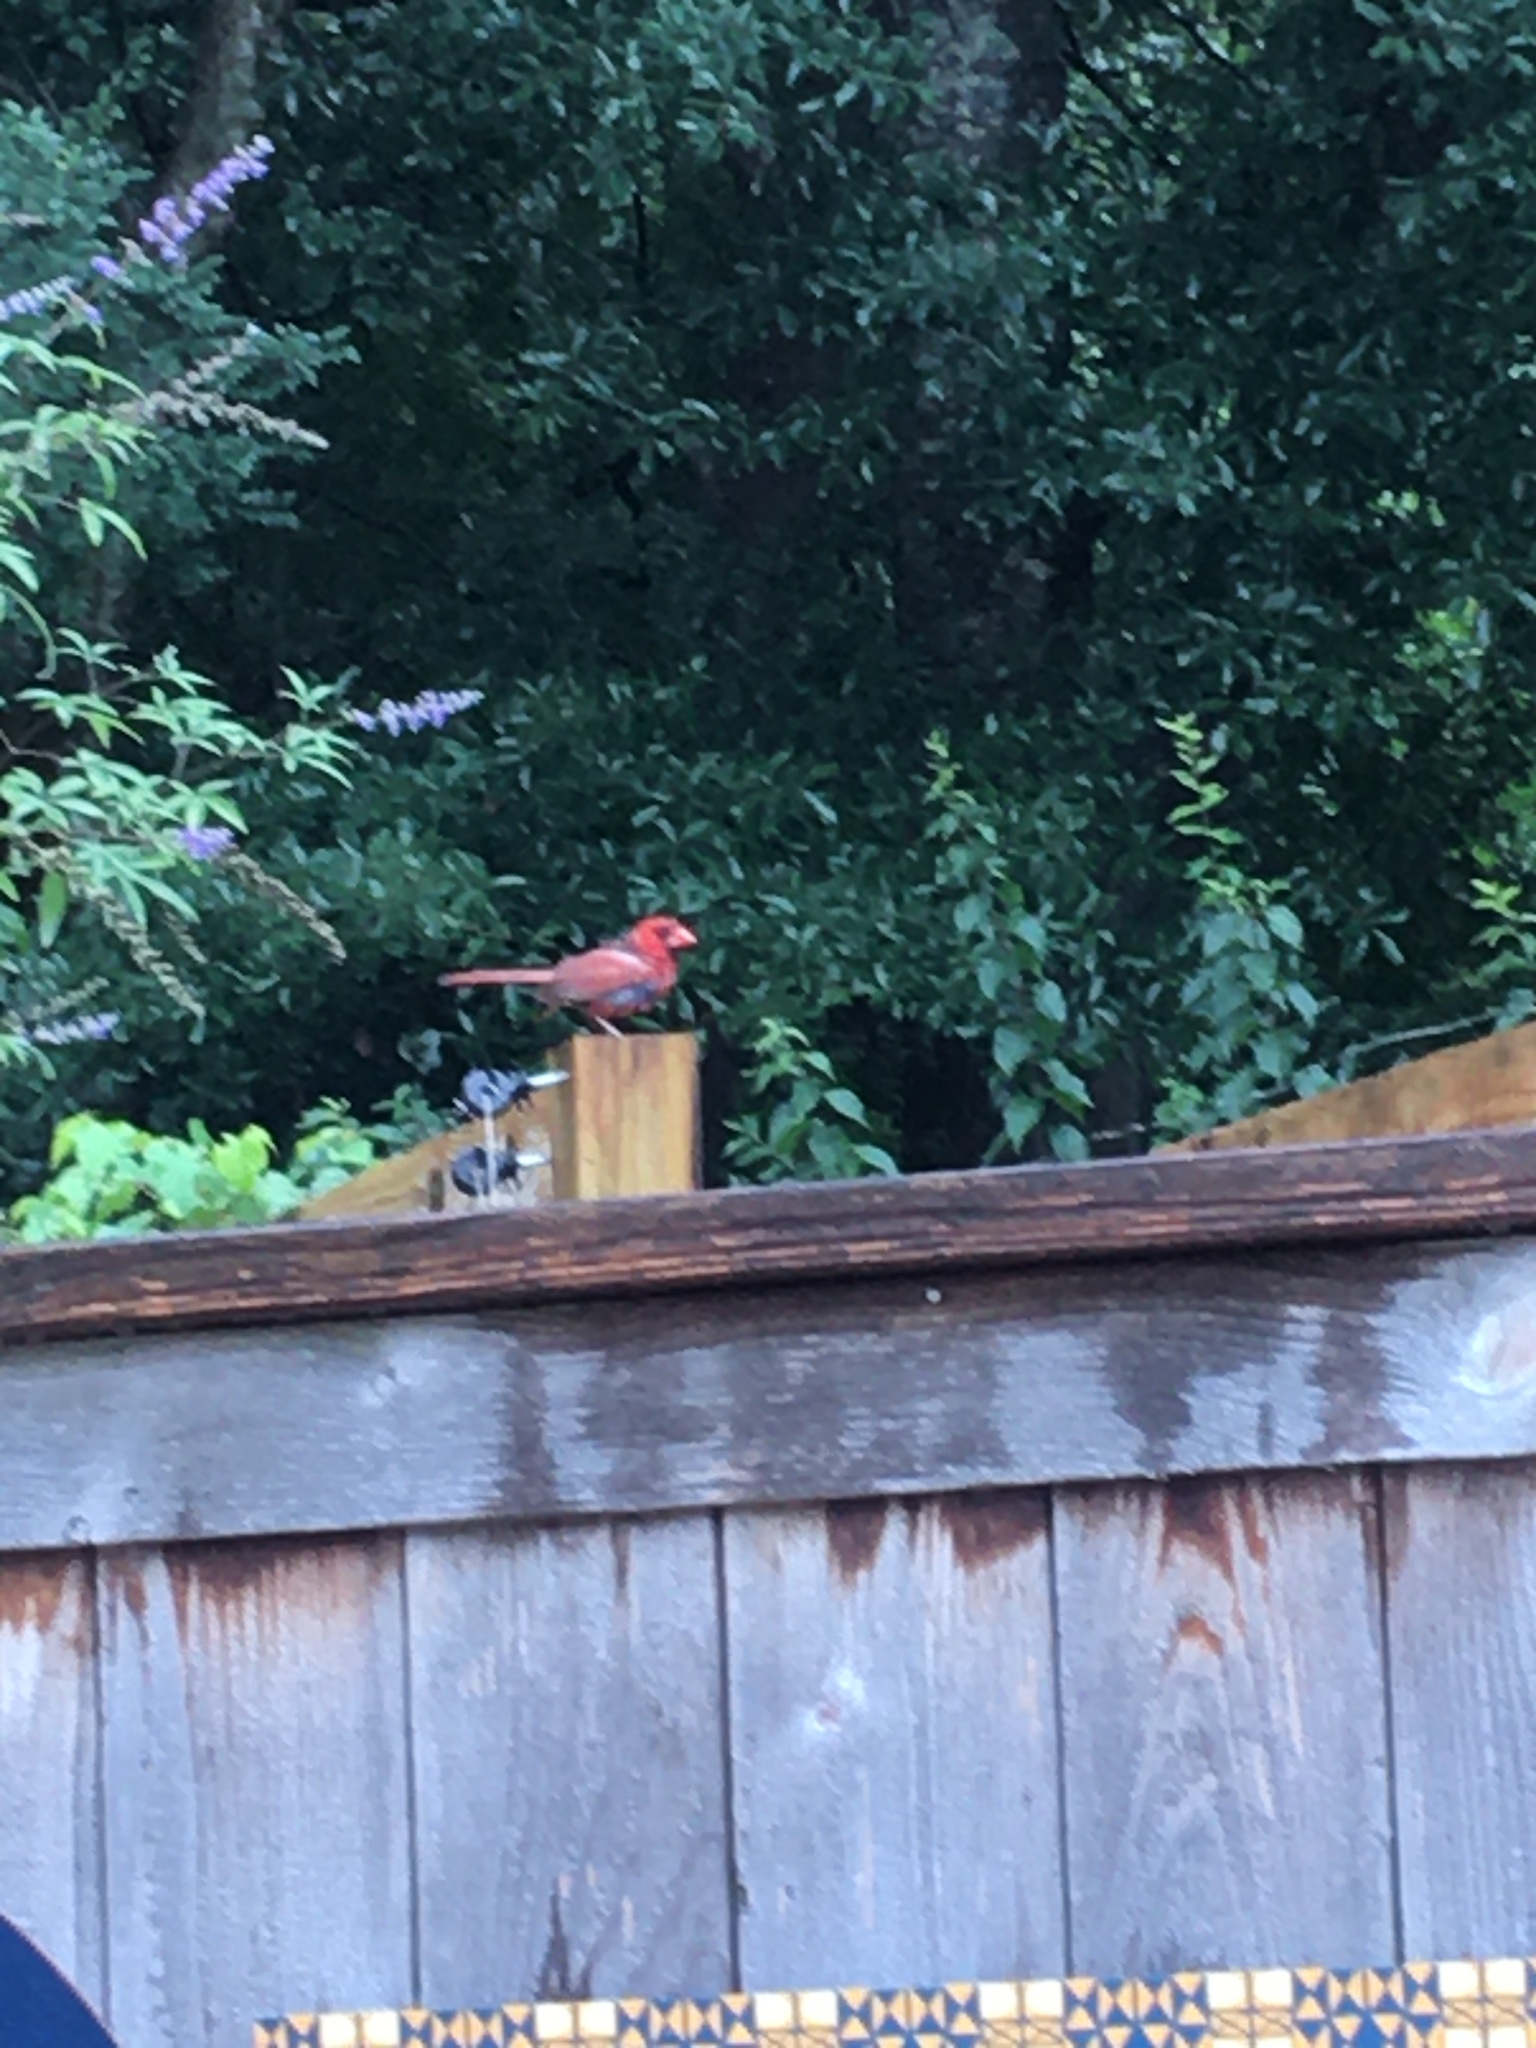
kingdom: Animalia
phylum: Chordata
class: Aves
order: Passeriformes
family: Cardinalidae
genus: Cardinalis
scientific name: Cardinalis cardinalis
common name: Northern cardinal
